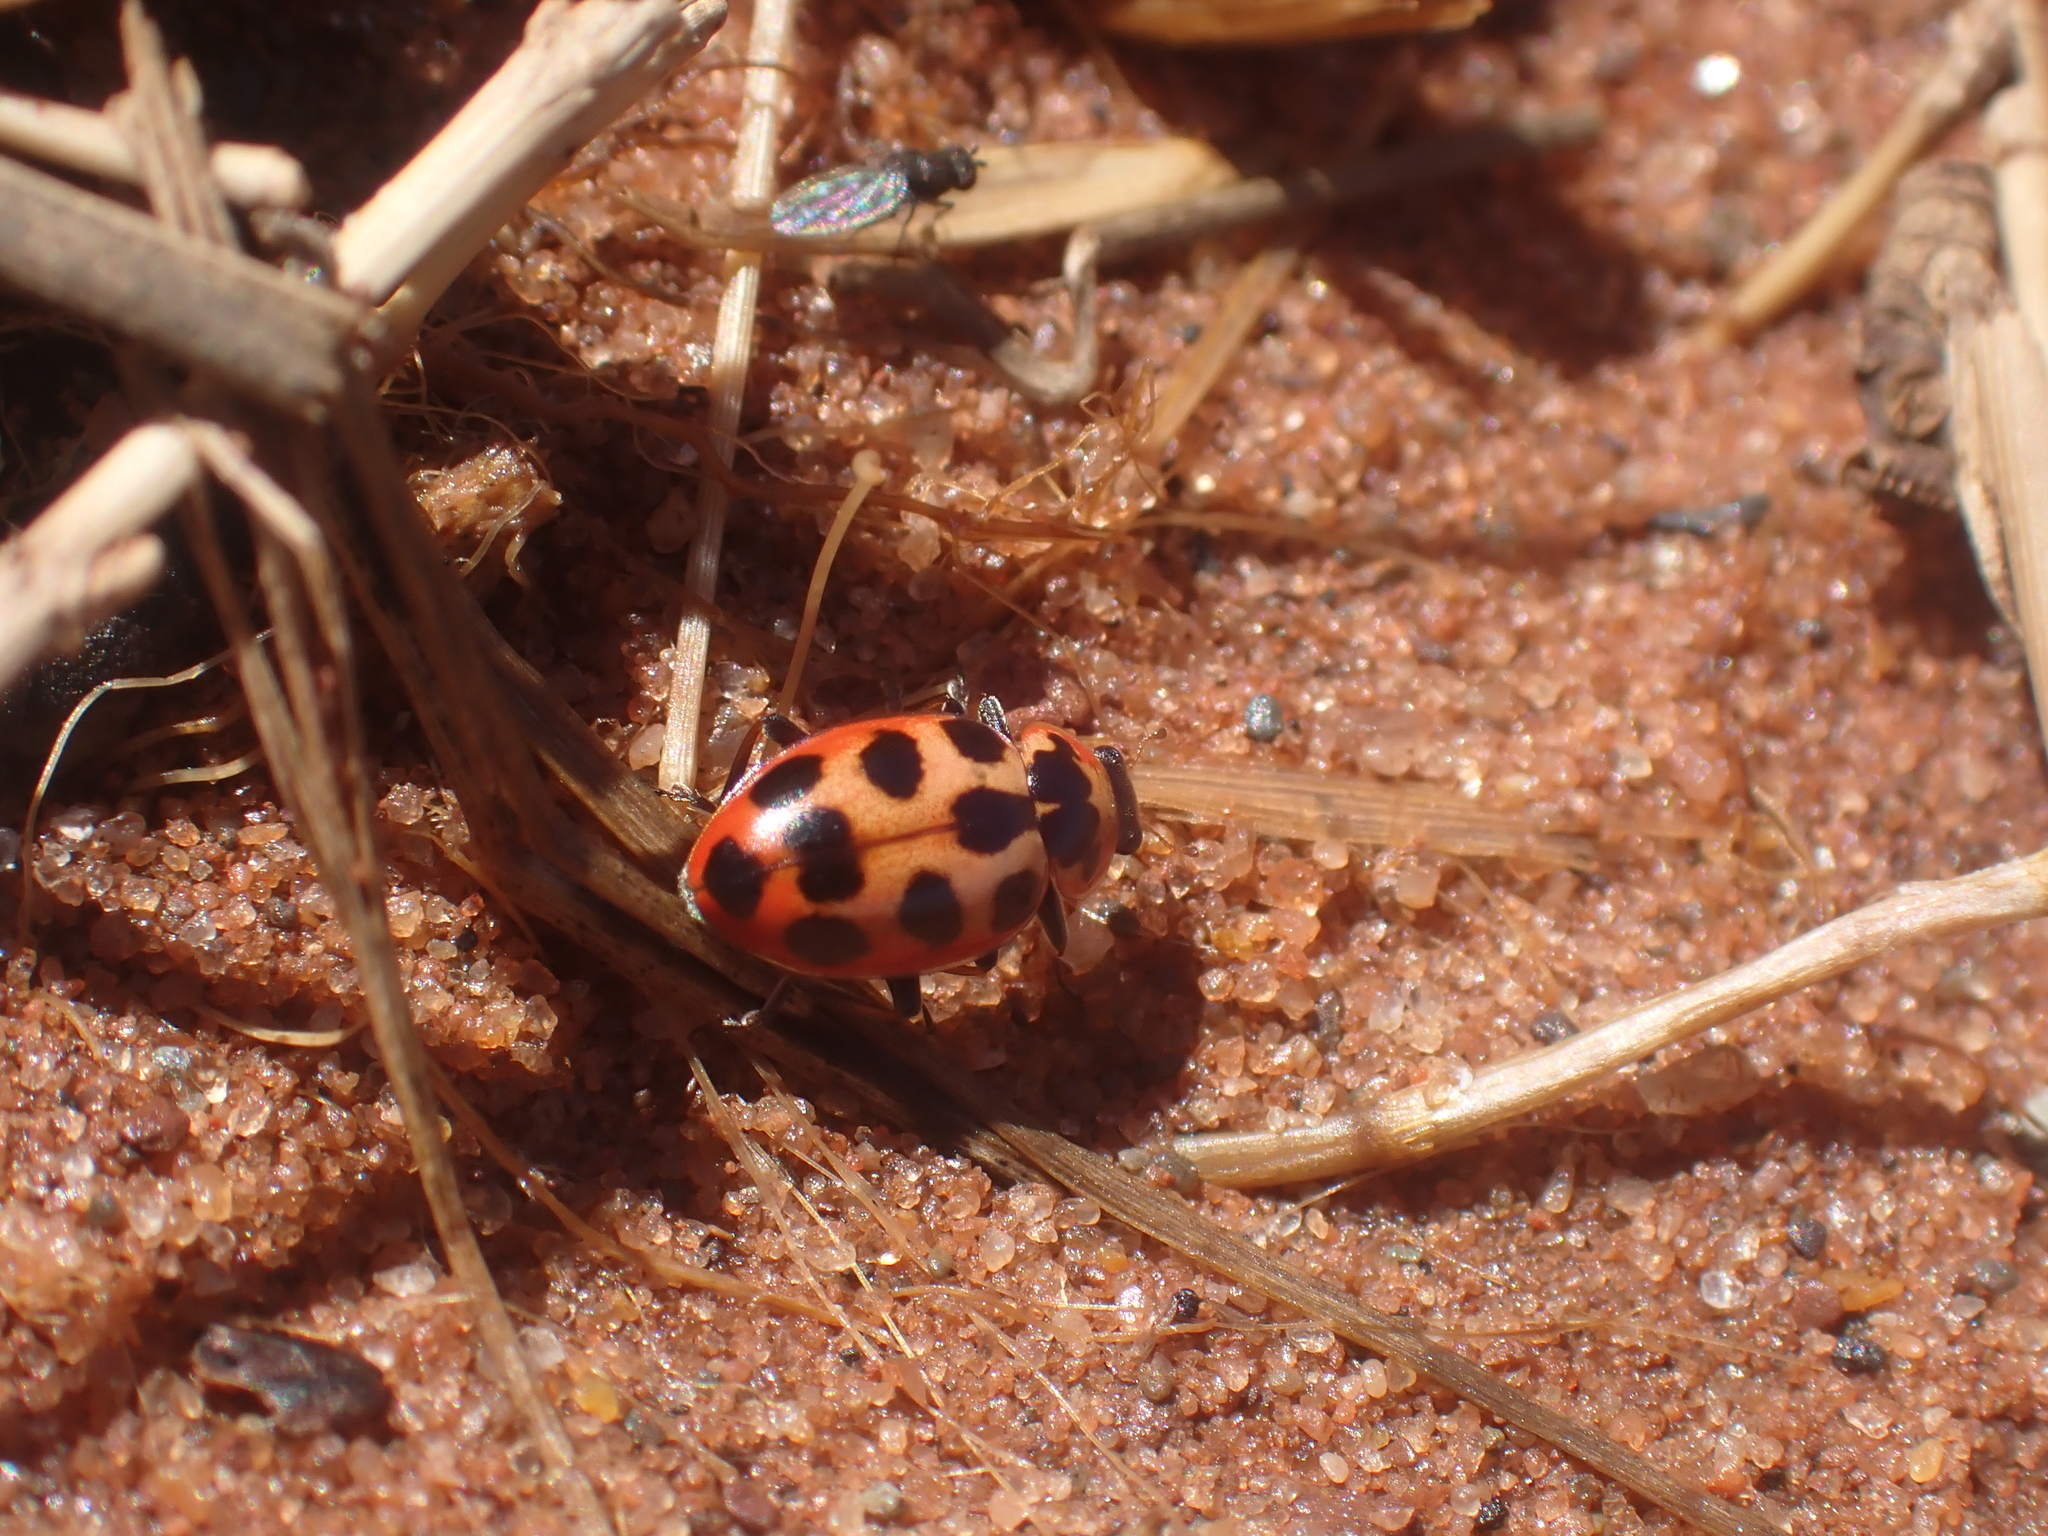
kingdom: Animalia
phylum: Arthropoda
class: Insecta
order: Coleoptera
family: Coccinellidae
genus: Naemia
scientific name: Naemia seriata
